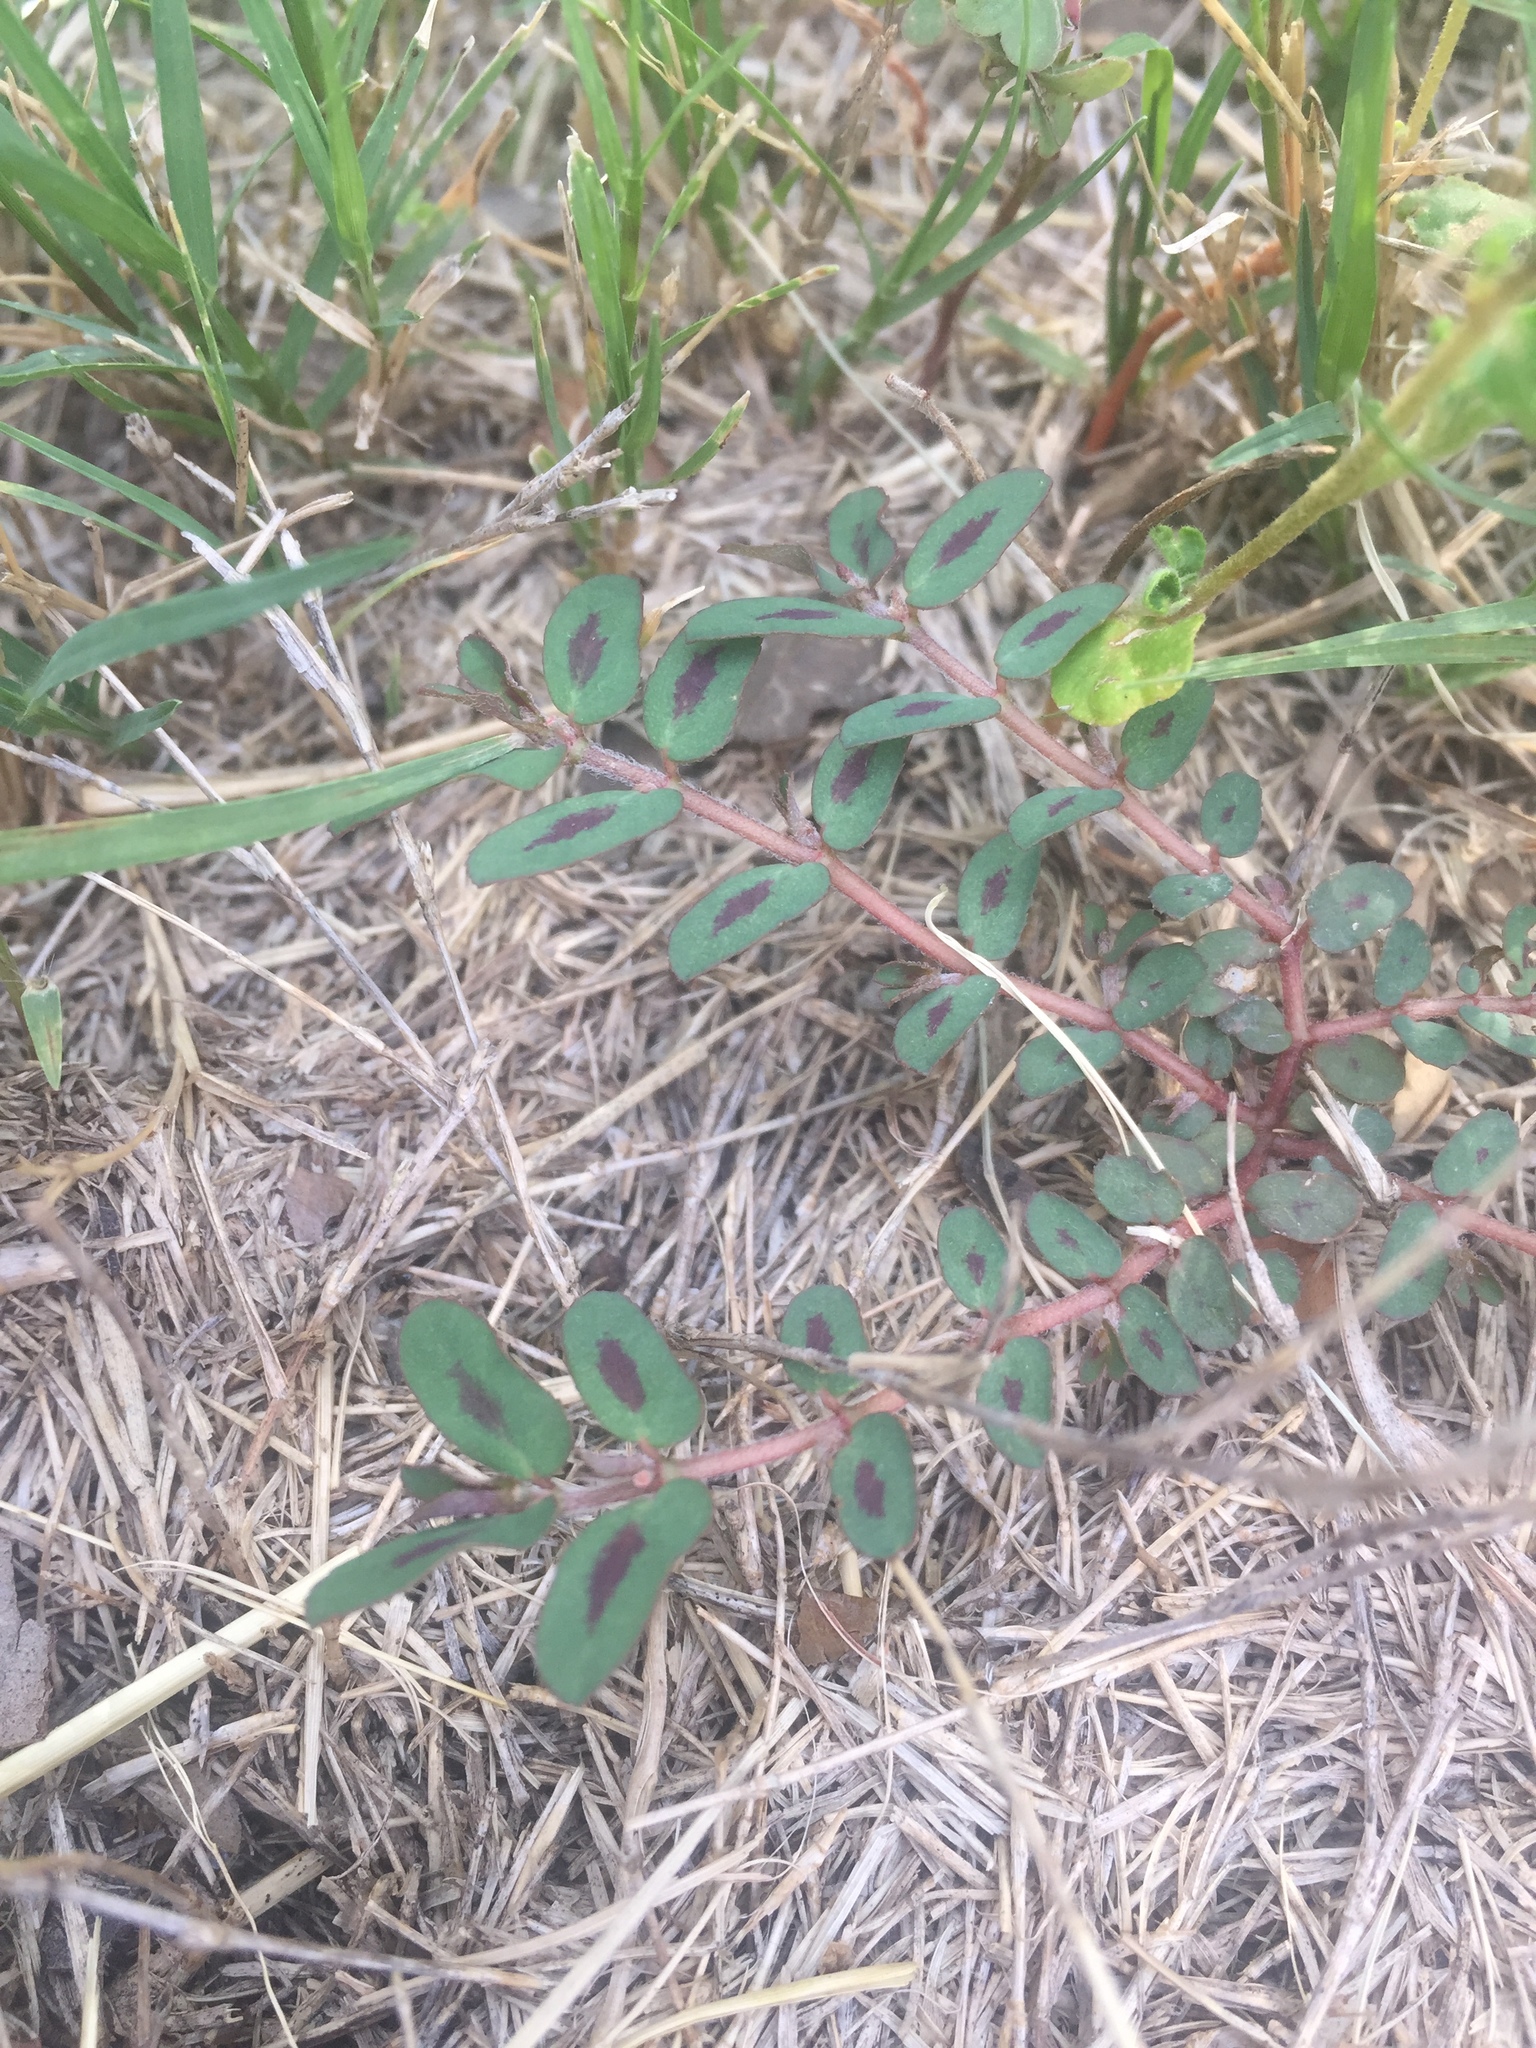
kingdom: Plantae
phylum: Tracheophyta
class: Magnoliopsida
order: Malpighiales
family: Euphorbiaceae
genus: Euphorbia
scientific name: Euphorbia maculata
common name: Spotted spurge
